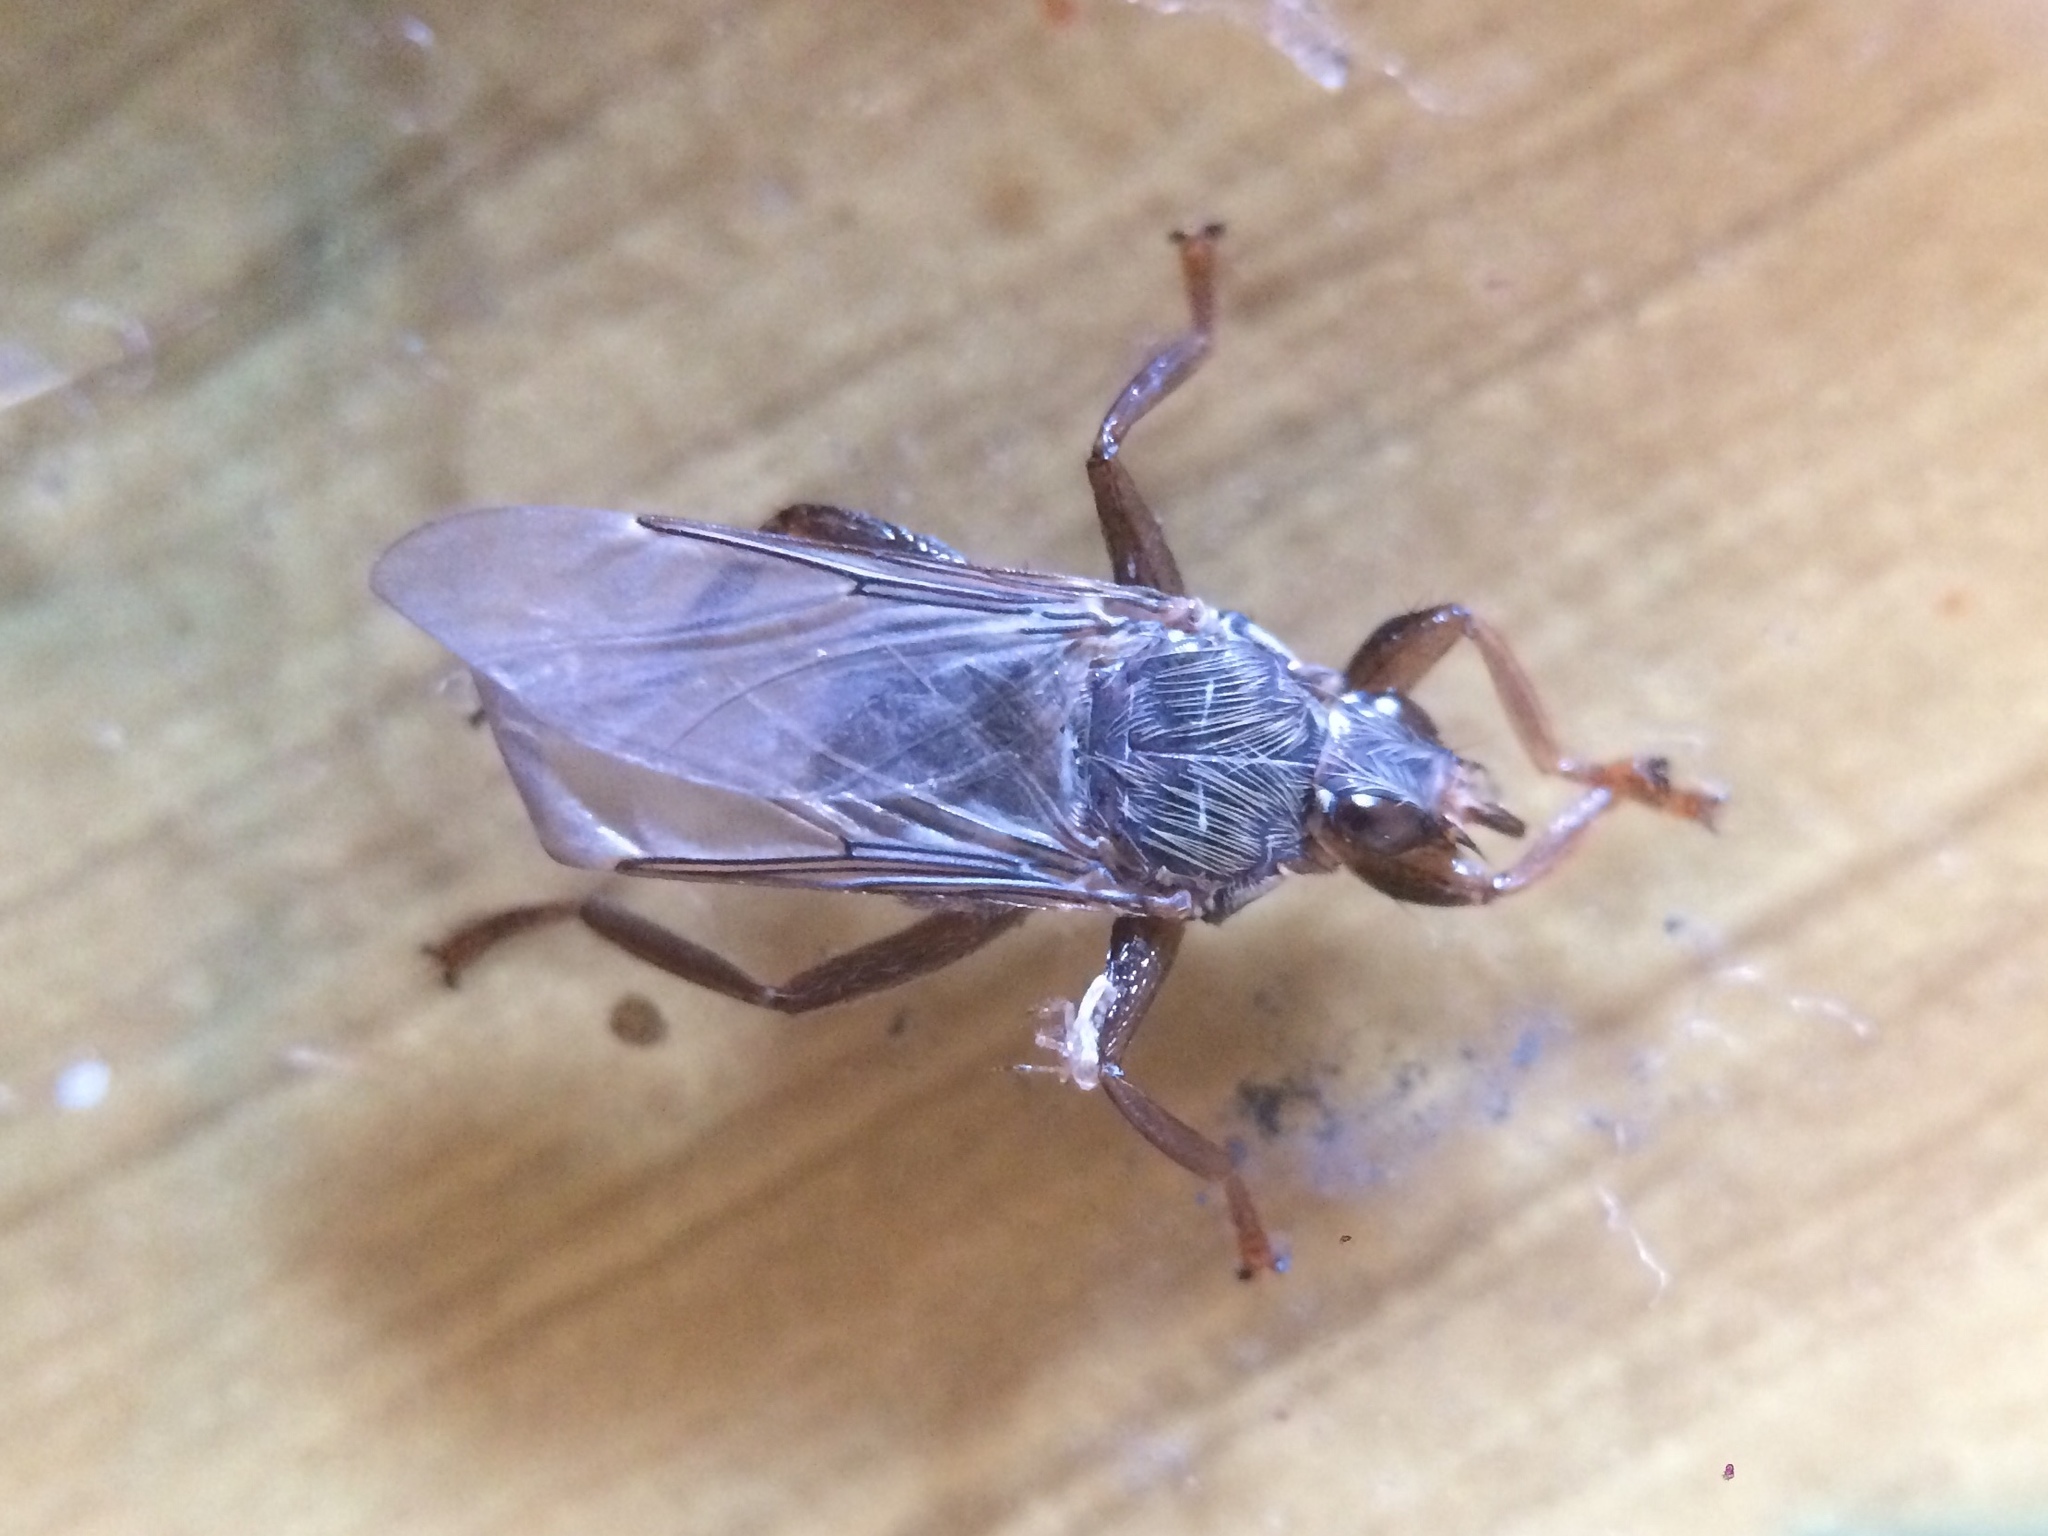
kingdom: Animalia
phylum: Arthropoda
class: Insecta
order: Diptera
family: Hippoboscidae
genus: Pseudolynchia
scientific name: Pseudolynchia canariensis
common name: Louse fly
